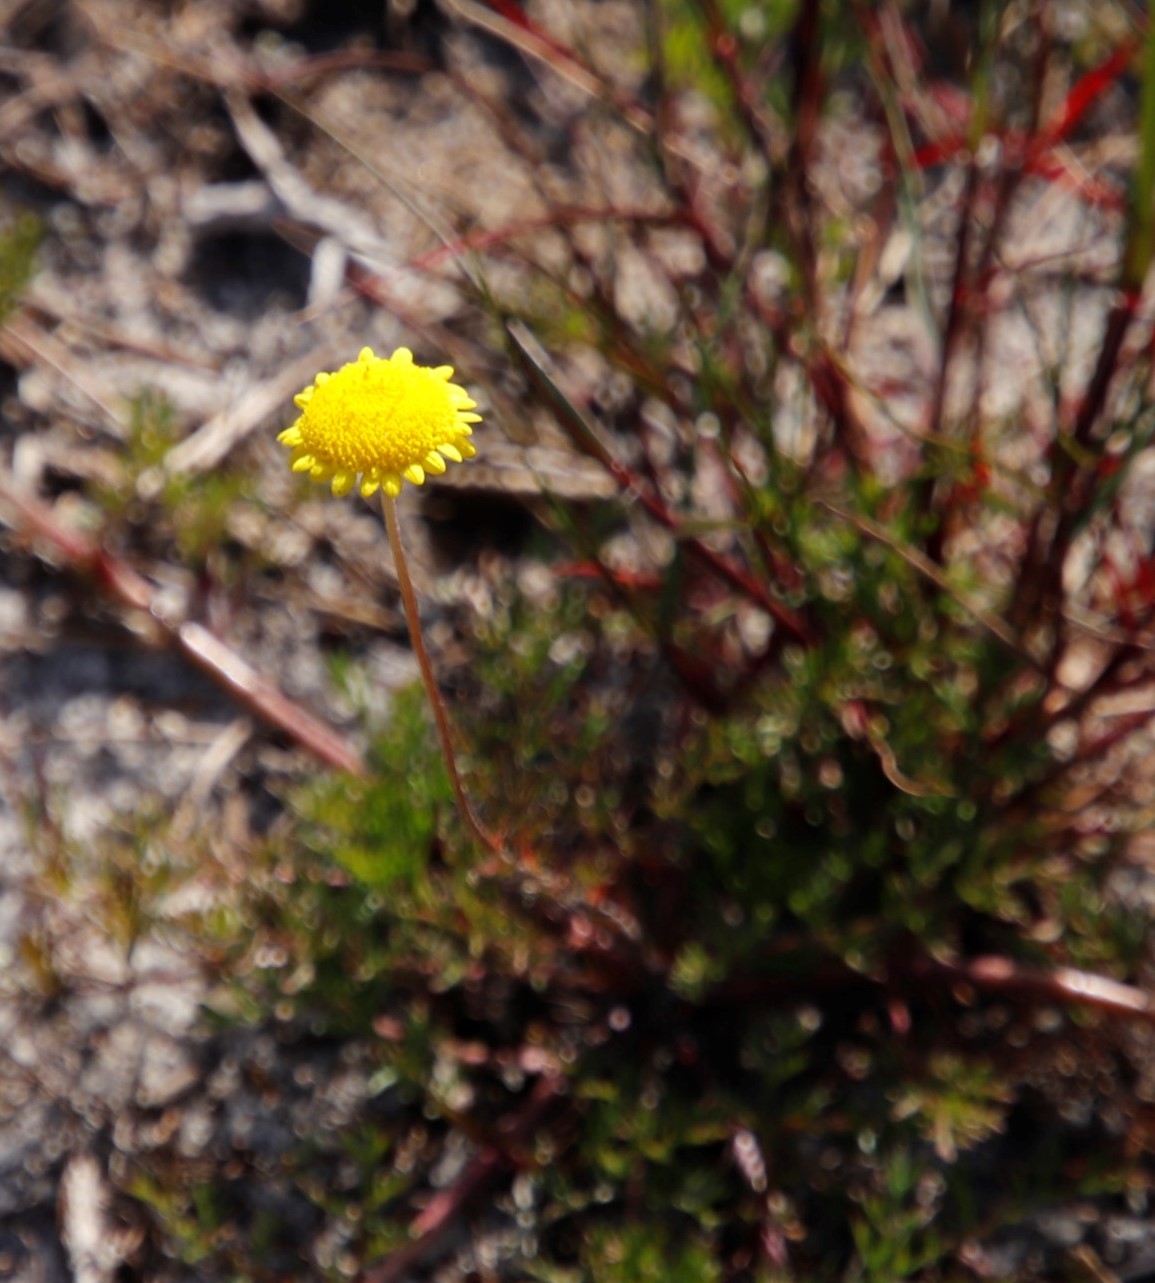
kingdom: Plantae
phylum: Tracheophyta
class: Magnoliopsida
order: Asterales
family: Asteraceae
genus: Cotula
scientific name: Cotula pruinosa
